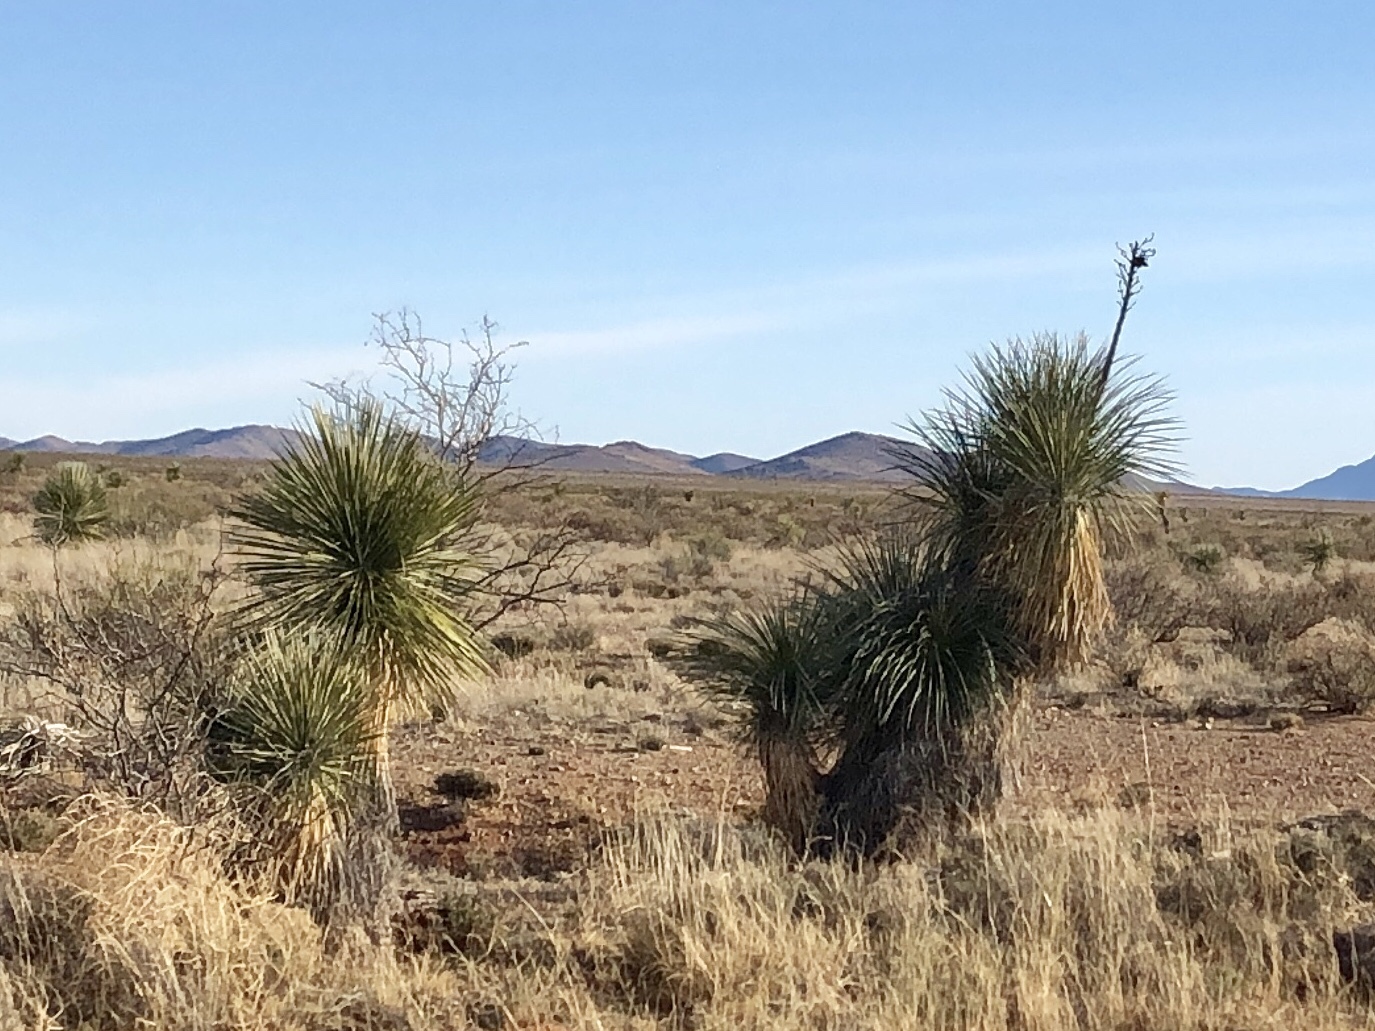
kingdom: Plantae
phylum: Tracheophyta
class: Liliopsida
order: Asparagales
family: Asparagaceae
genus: Yucca
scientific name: Yucca elata
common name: Palmella
